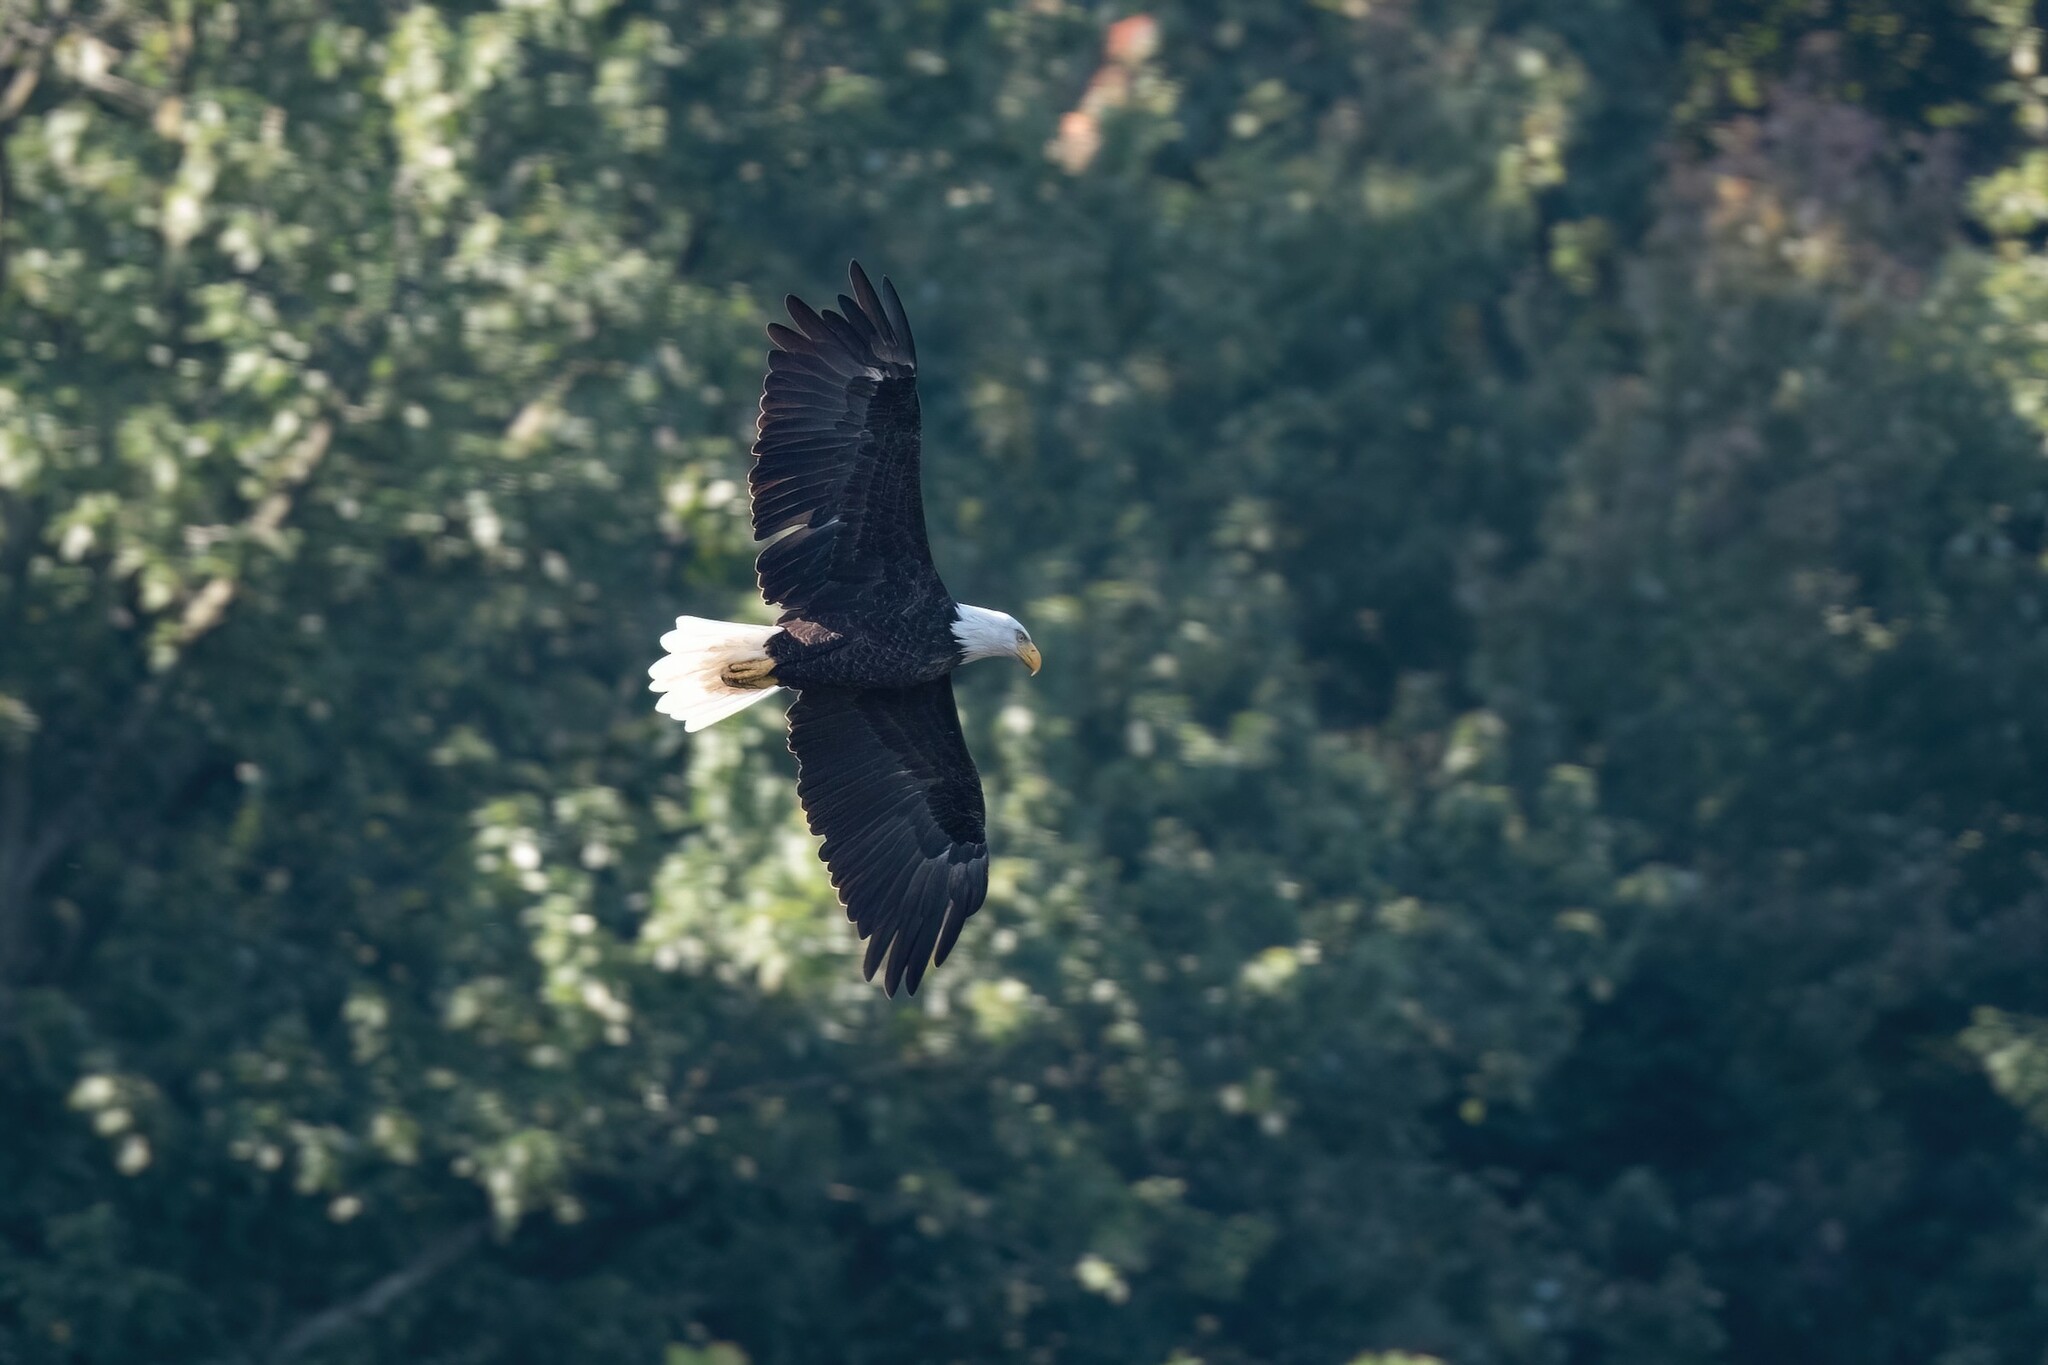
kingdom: Animalia
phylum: Chordata
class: Aves
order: Accipitriformes
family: Accipitridae
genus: Haliaeetus
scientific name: Haliaeetus leucocephalus
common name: Bald eagle
